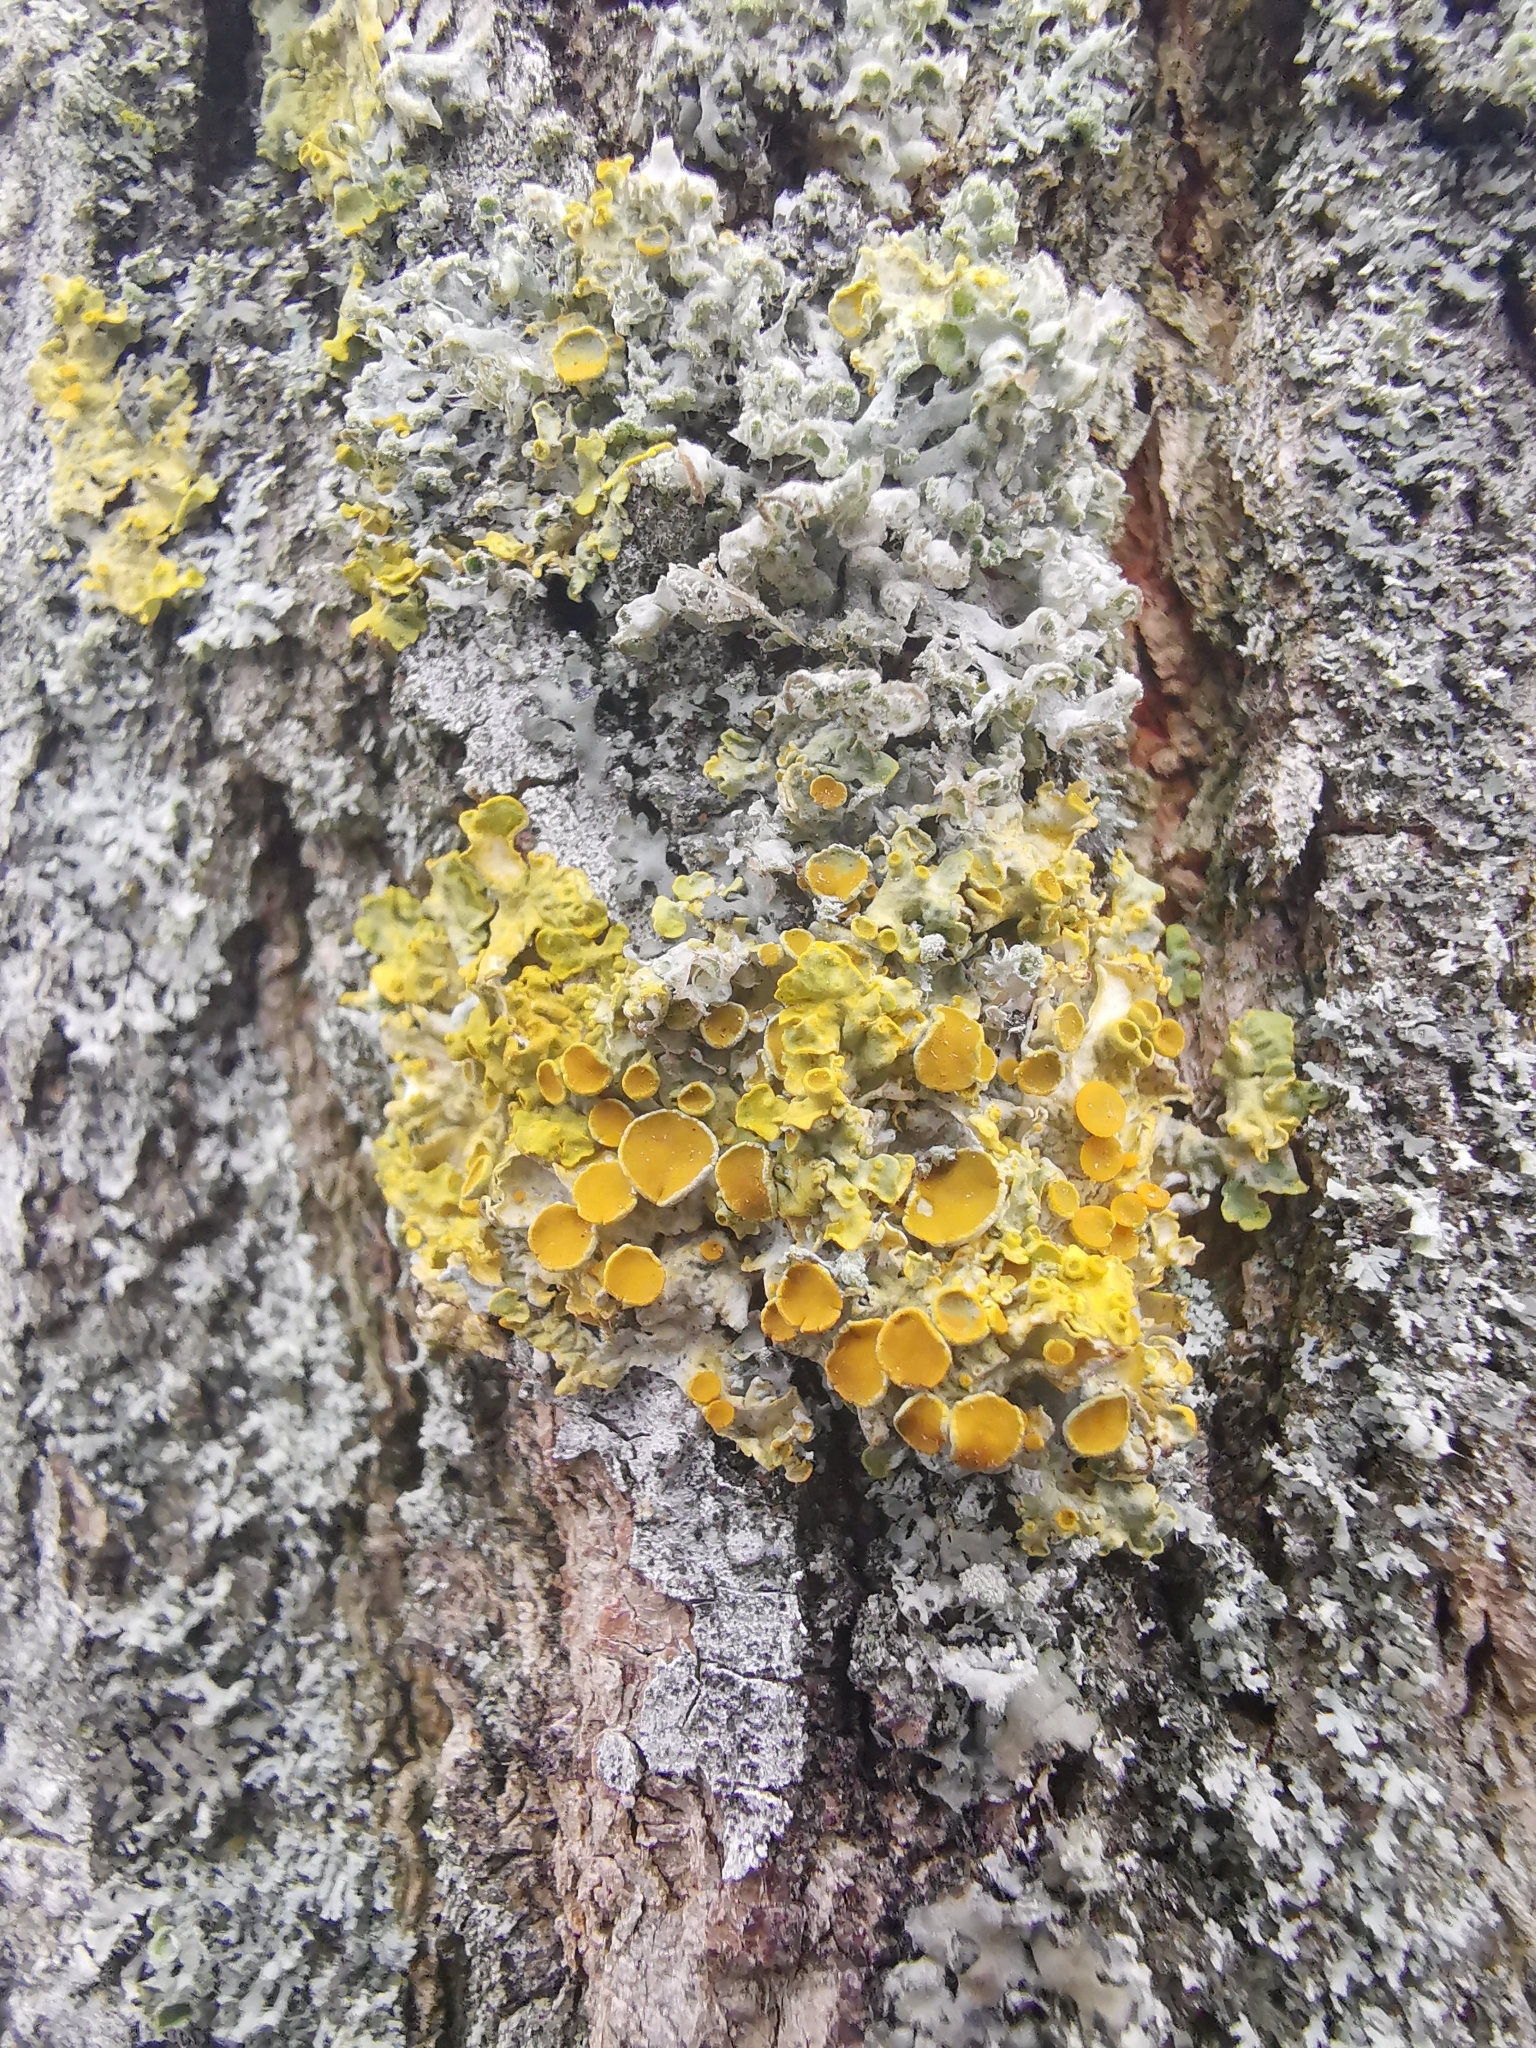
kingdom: Fungi
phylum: Ascomycota
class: Lecanoromycetes
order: Teloschistales
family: Teloschistaceae
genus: Xanthoria
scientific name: Xanthoria parietina
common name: Common orange lichen
